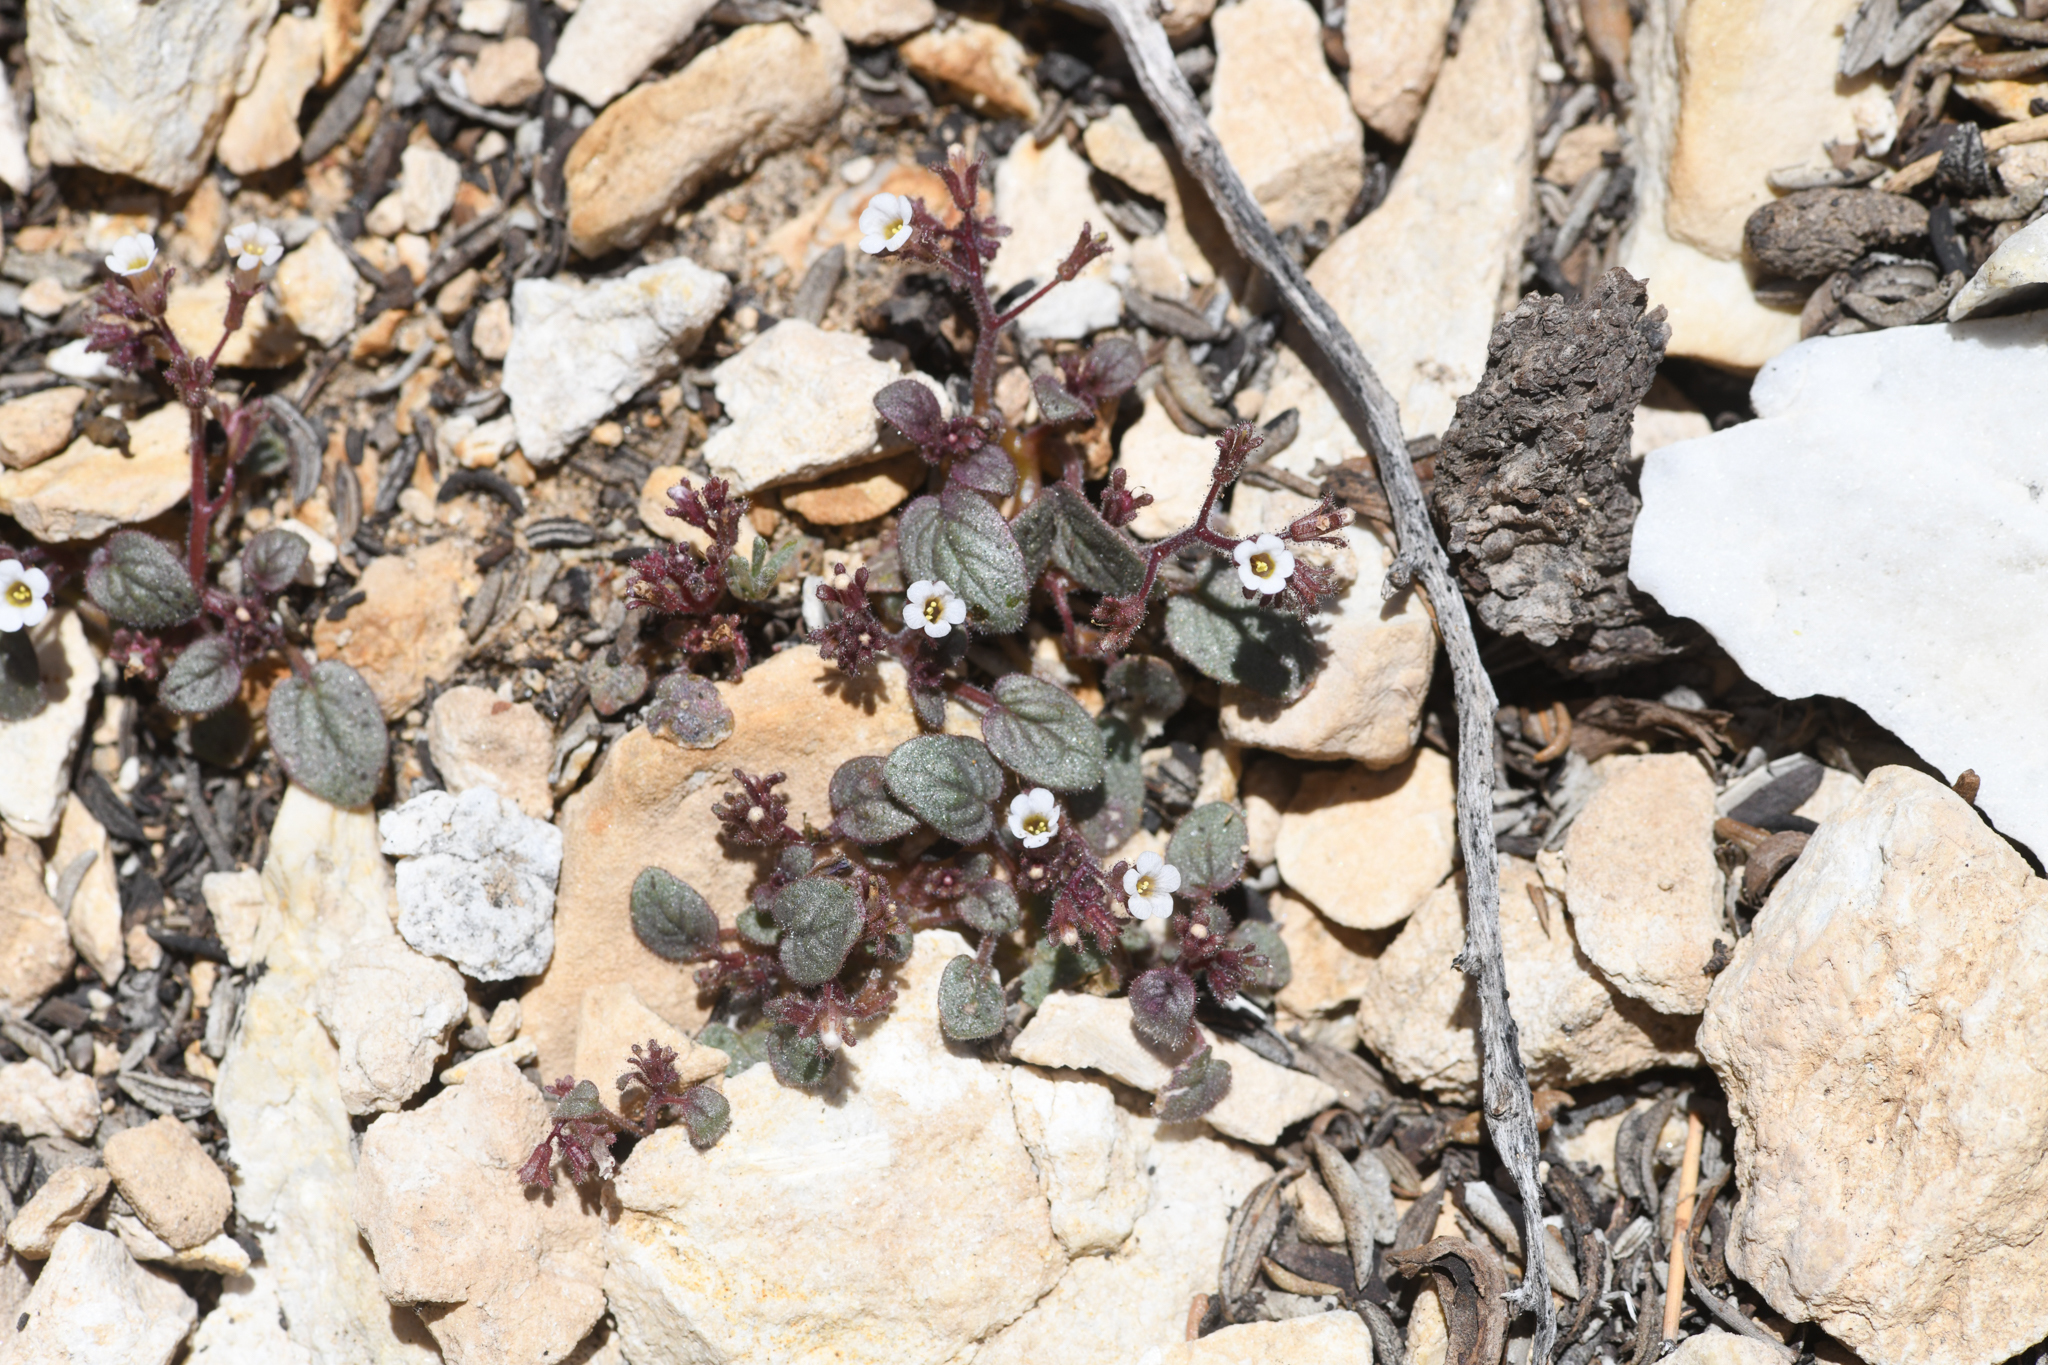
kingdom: Plantae
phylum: Tracheophyta
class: Magnoliopsida
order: Boraginales
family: Hydrophyllaceae
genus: Phacelia
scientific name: Phacelia barnebyana
